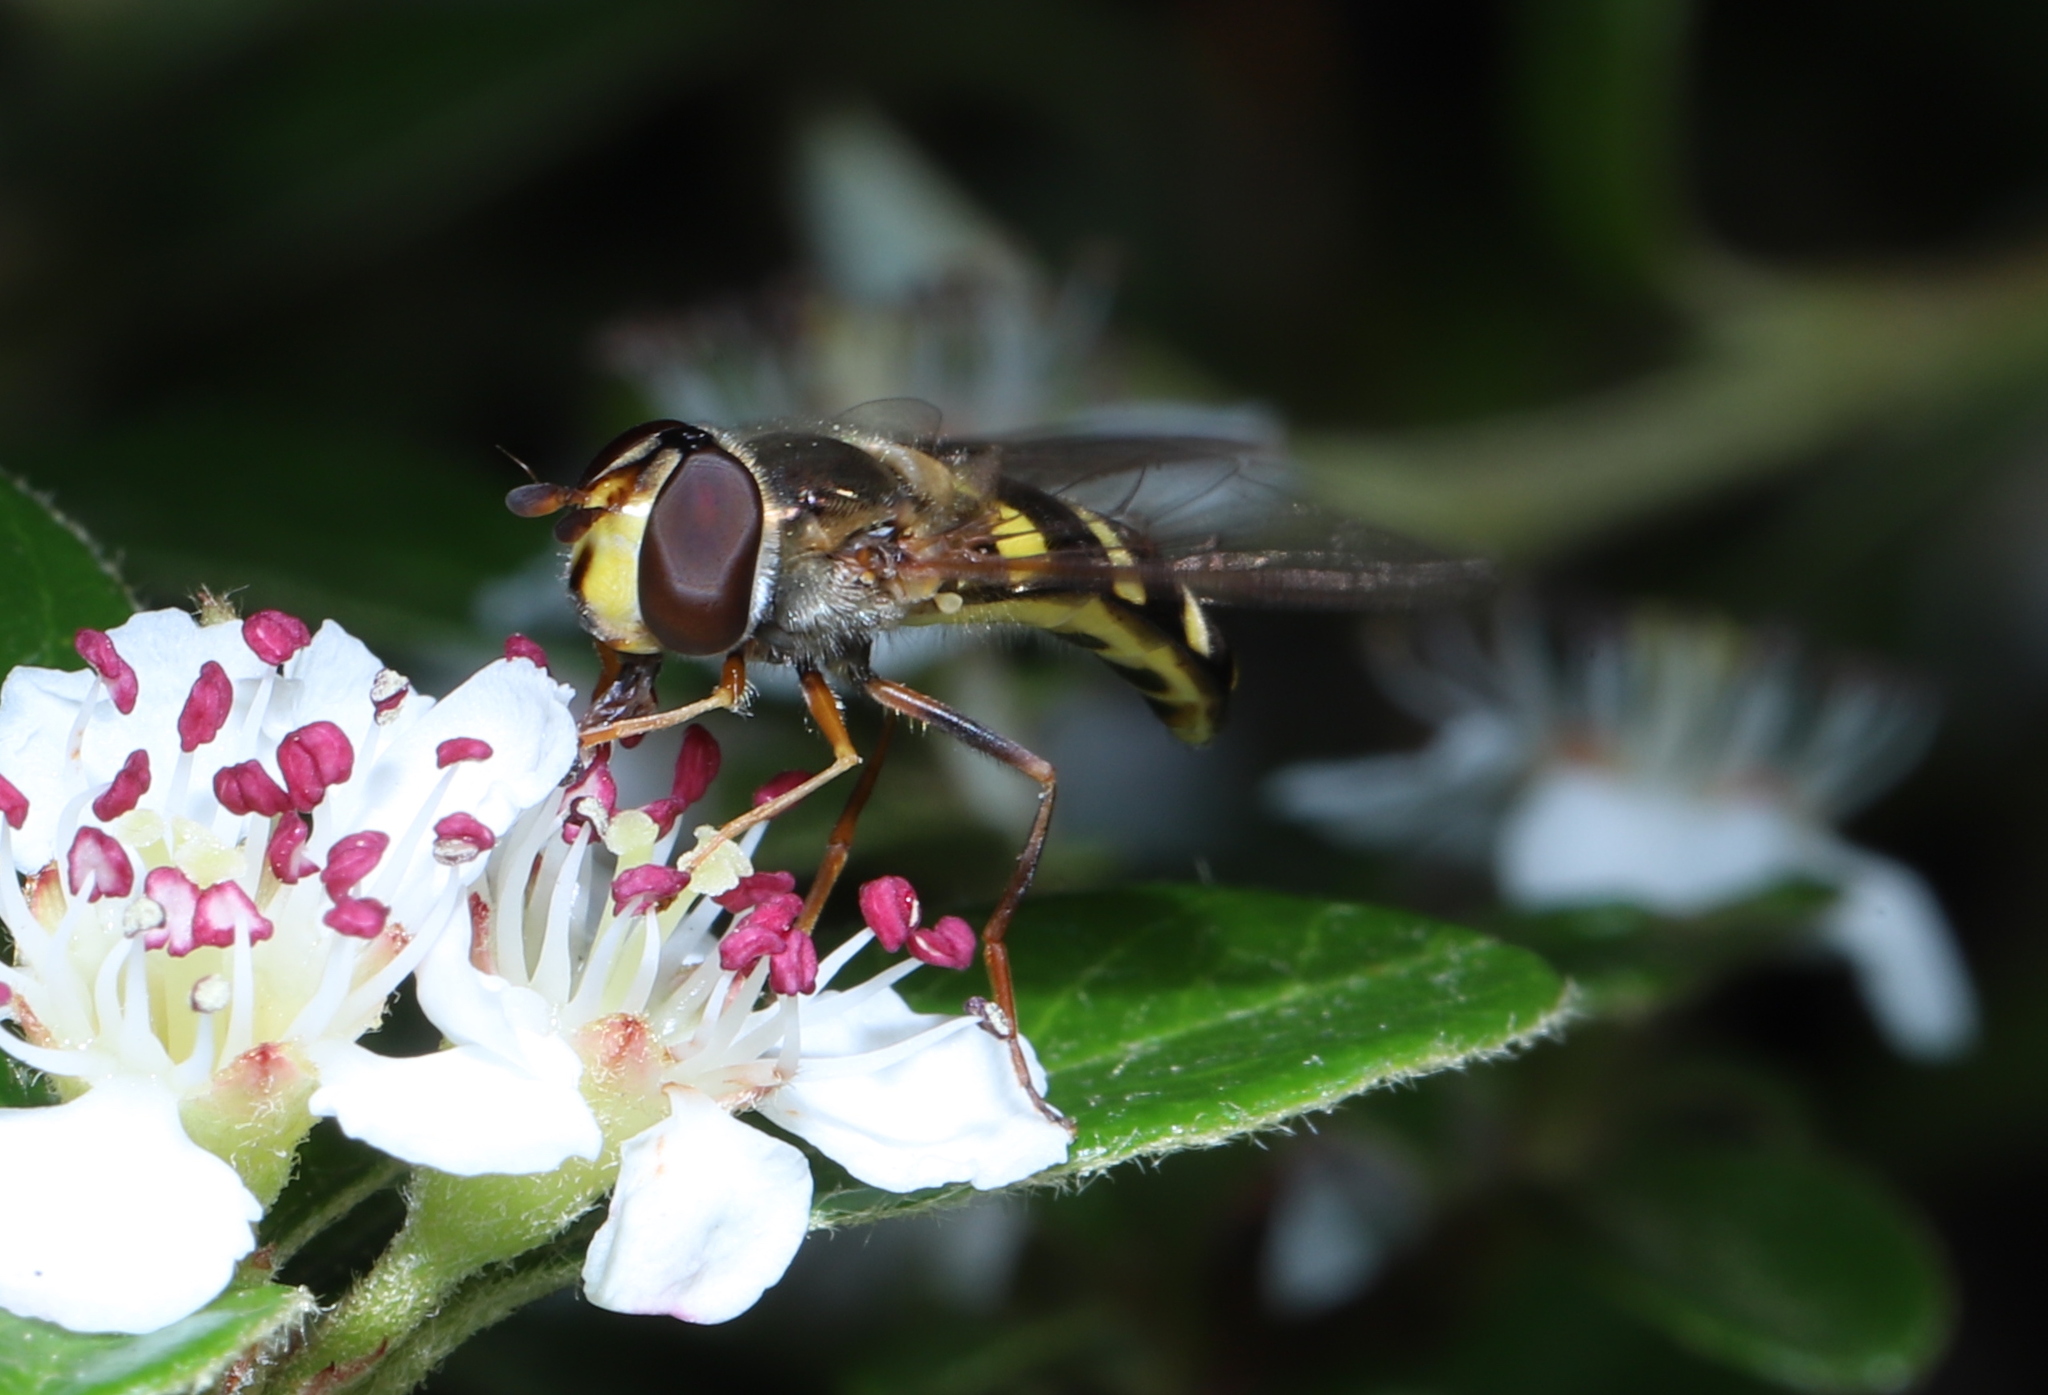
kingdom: Animalia
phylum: Arthropoda
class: Insecta
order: Diptera
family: Syrphidae
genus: Eupeodes
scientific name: Eupeodes
